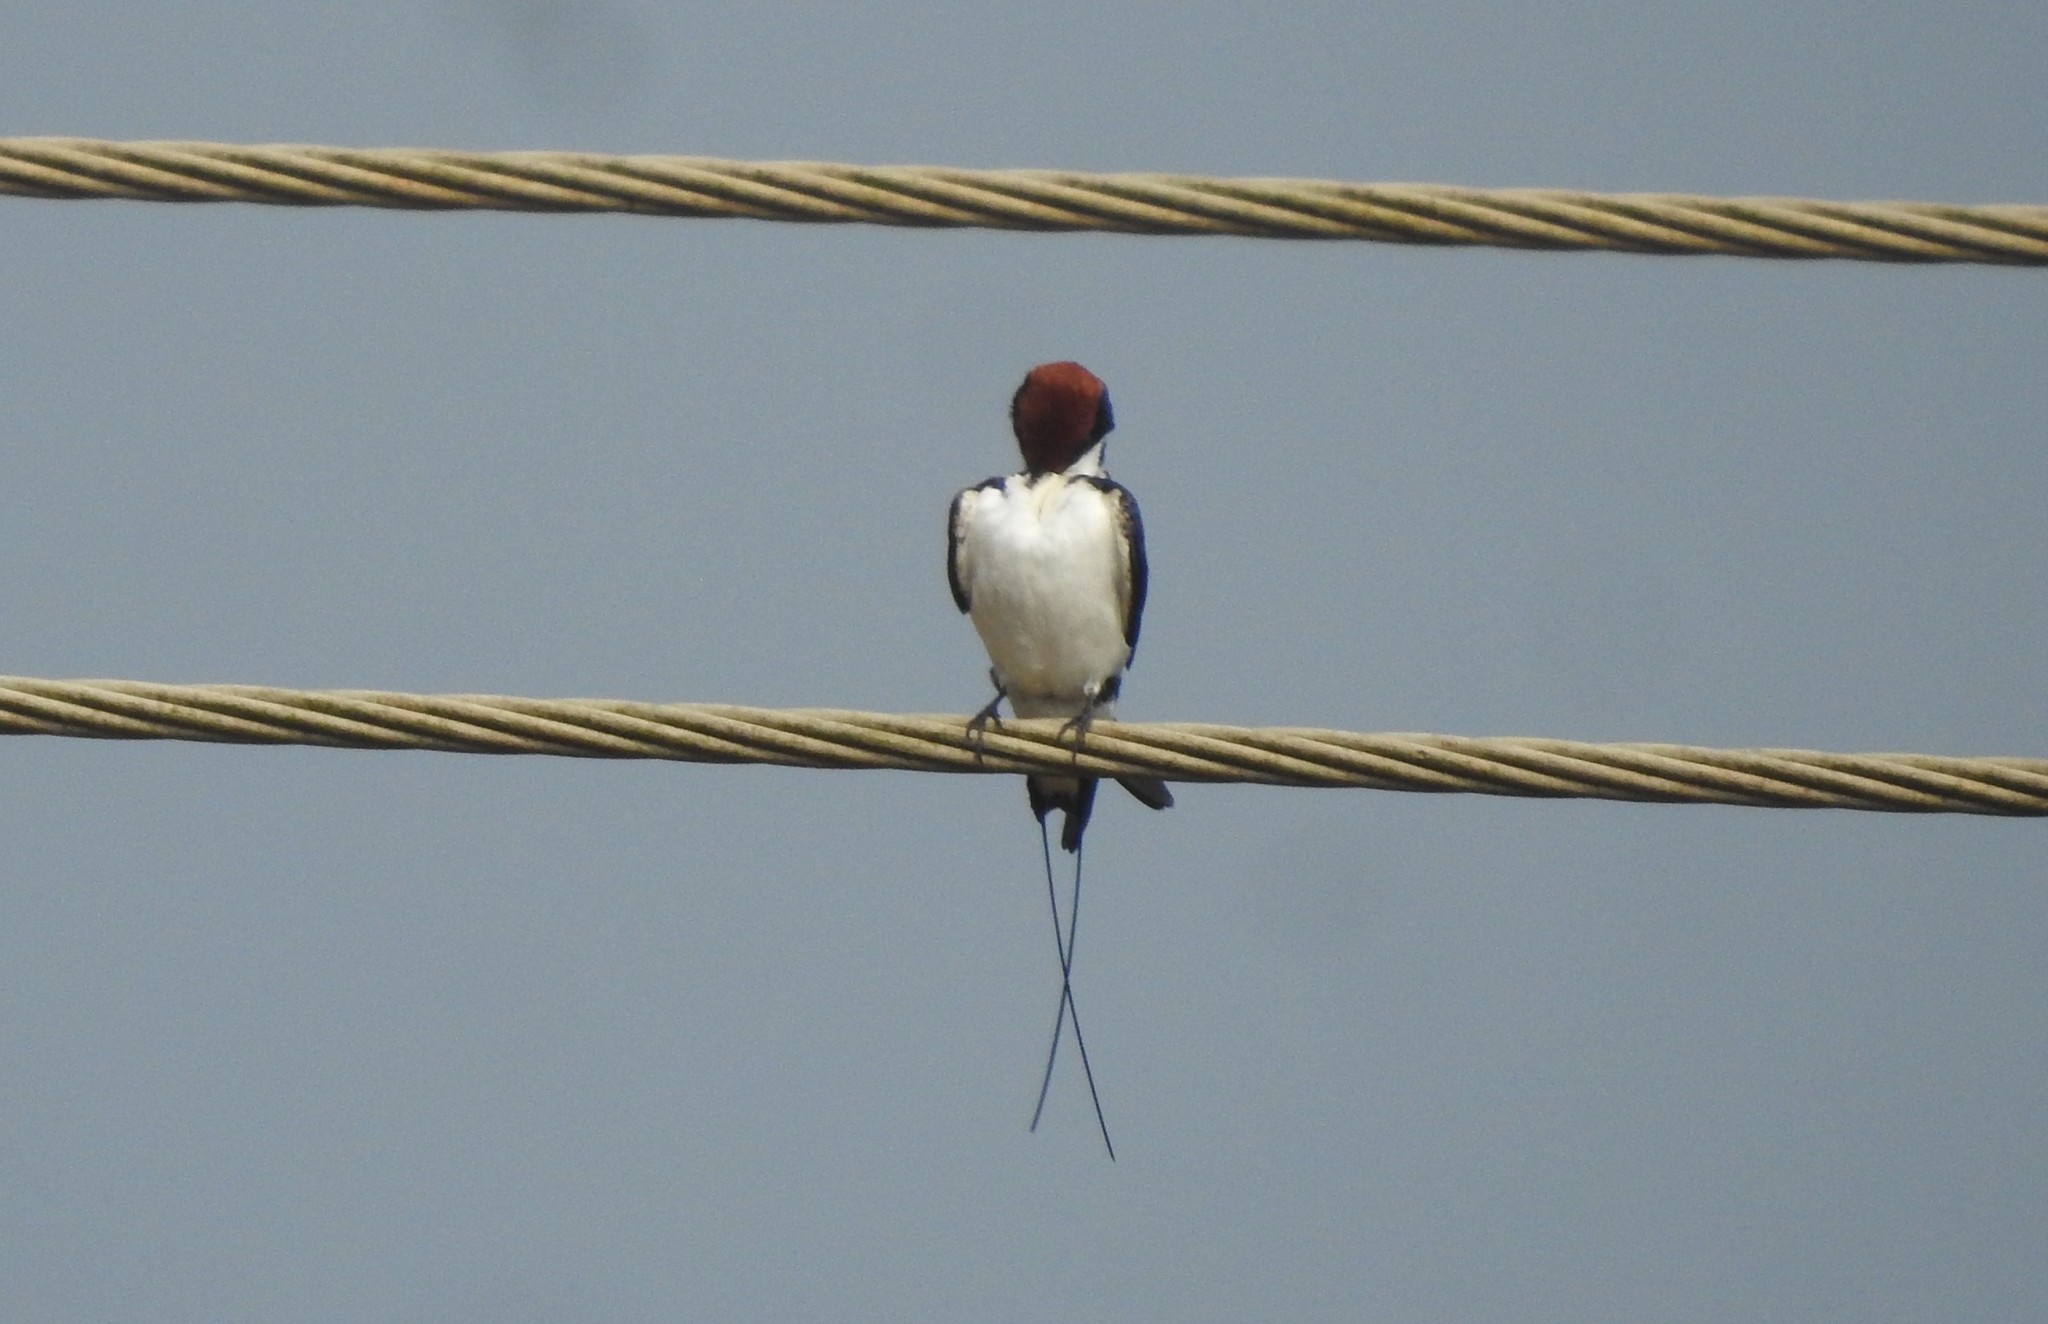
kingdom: Animalia
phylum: Chordata
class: Aves
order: Passeriformes
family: Hirundinidae
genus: Hirundo
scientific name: Hirundo smithii
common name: Wire-tailed swallow
